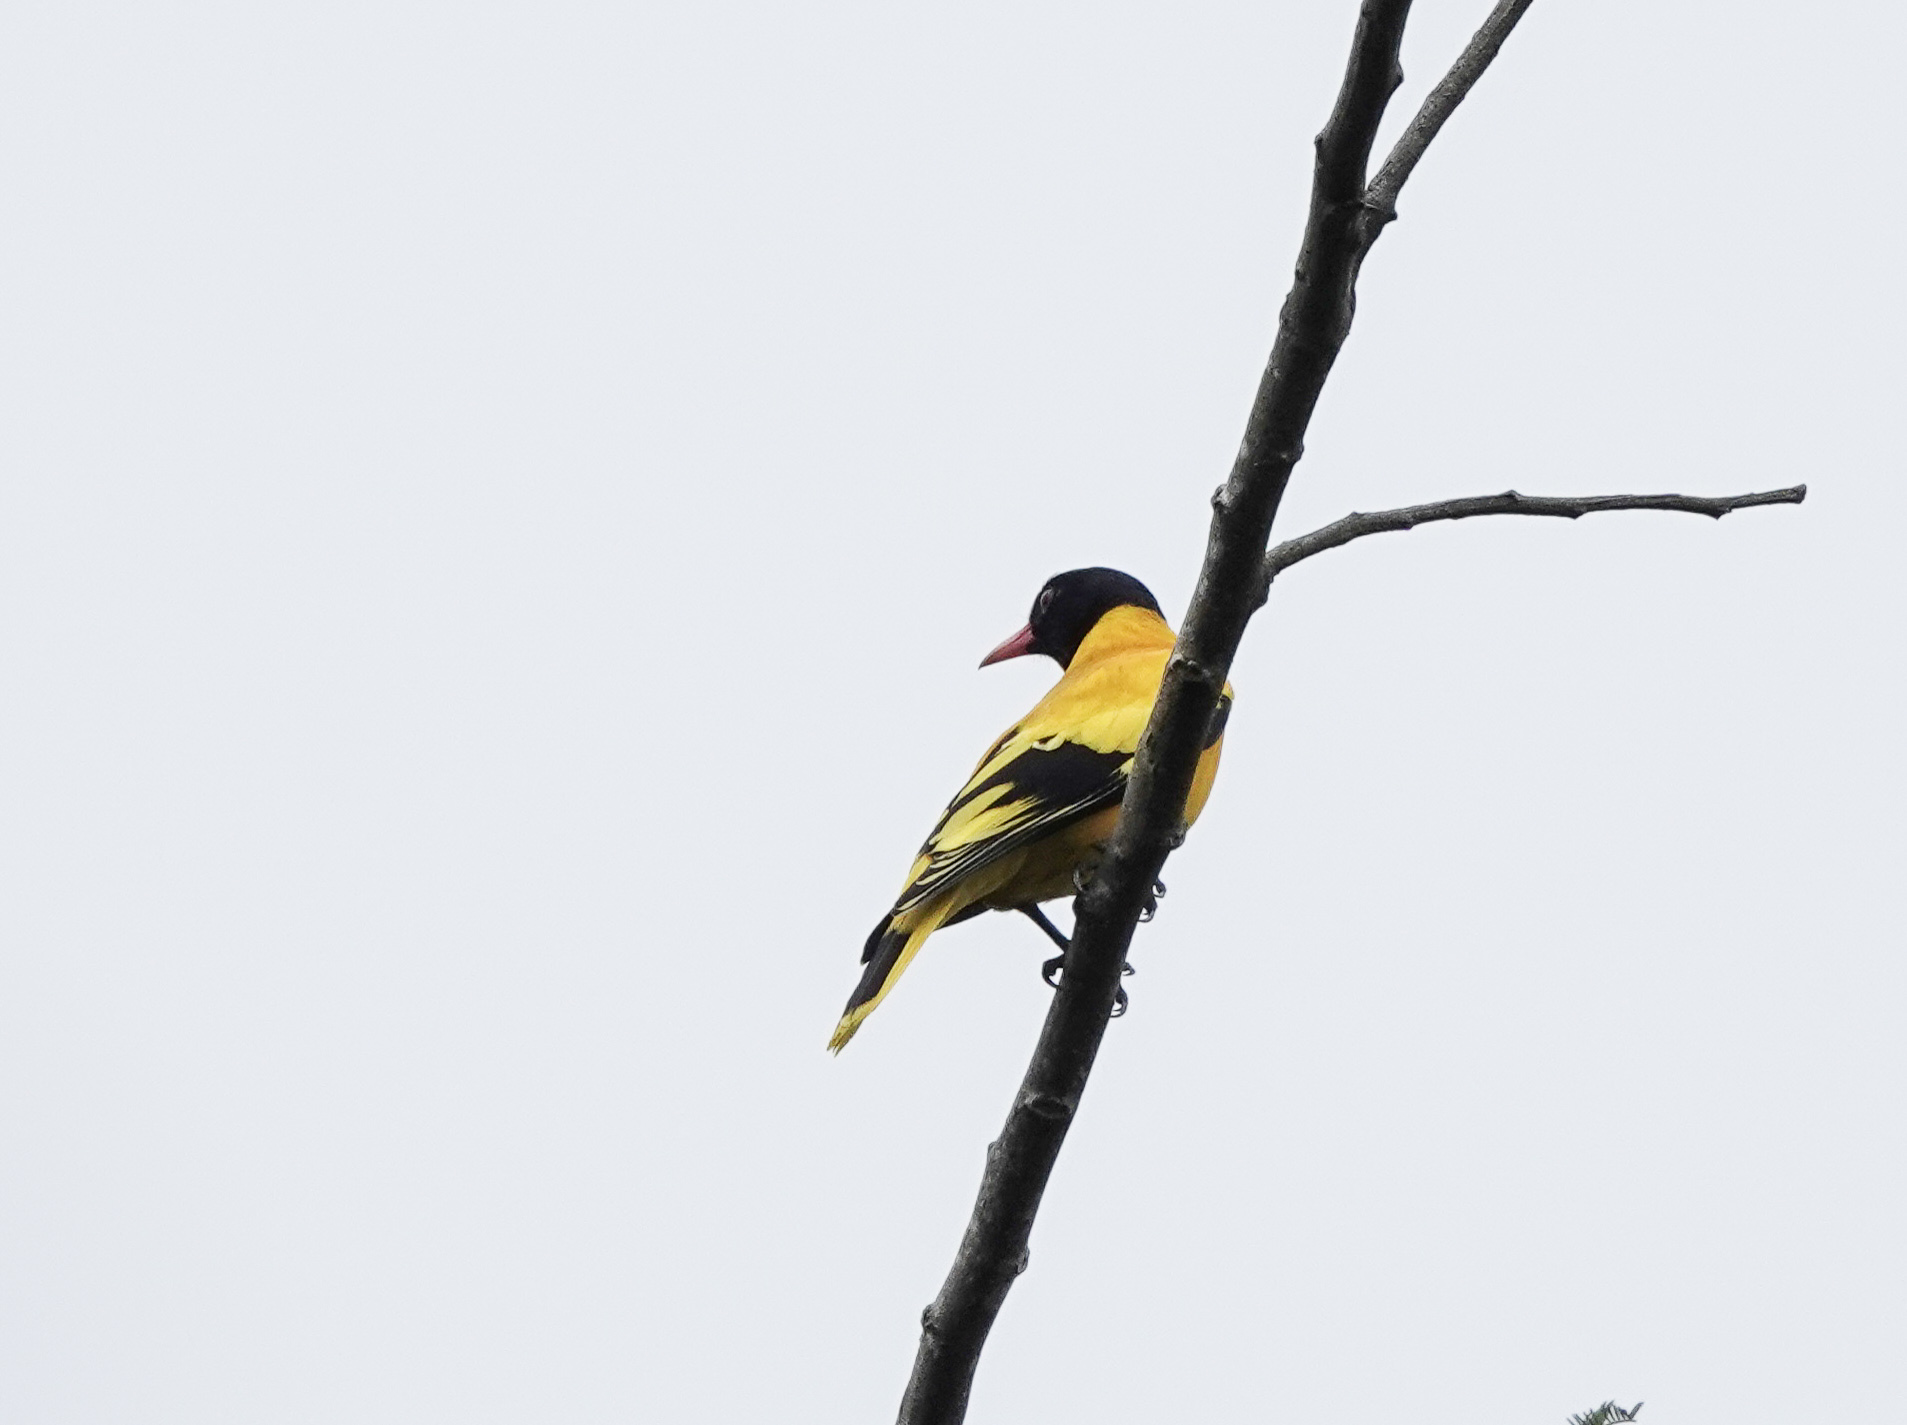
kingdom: Animalia
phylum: Chordata
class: Aves
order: Passeriformes
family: Oriolidae
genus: Oriolus
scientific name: Oriolus xanthornus
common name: Black-hooded oriole
